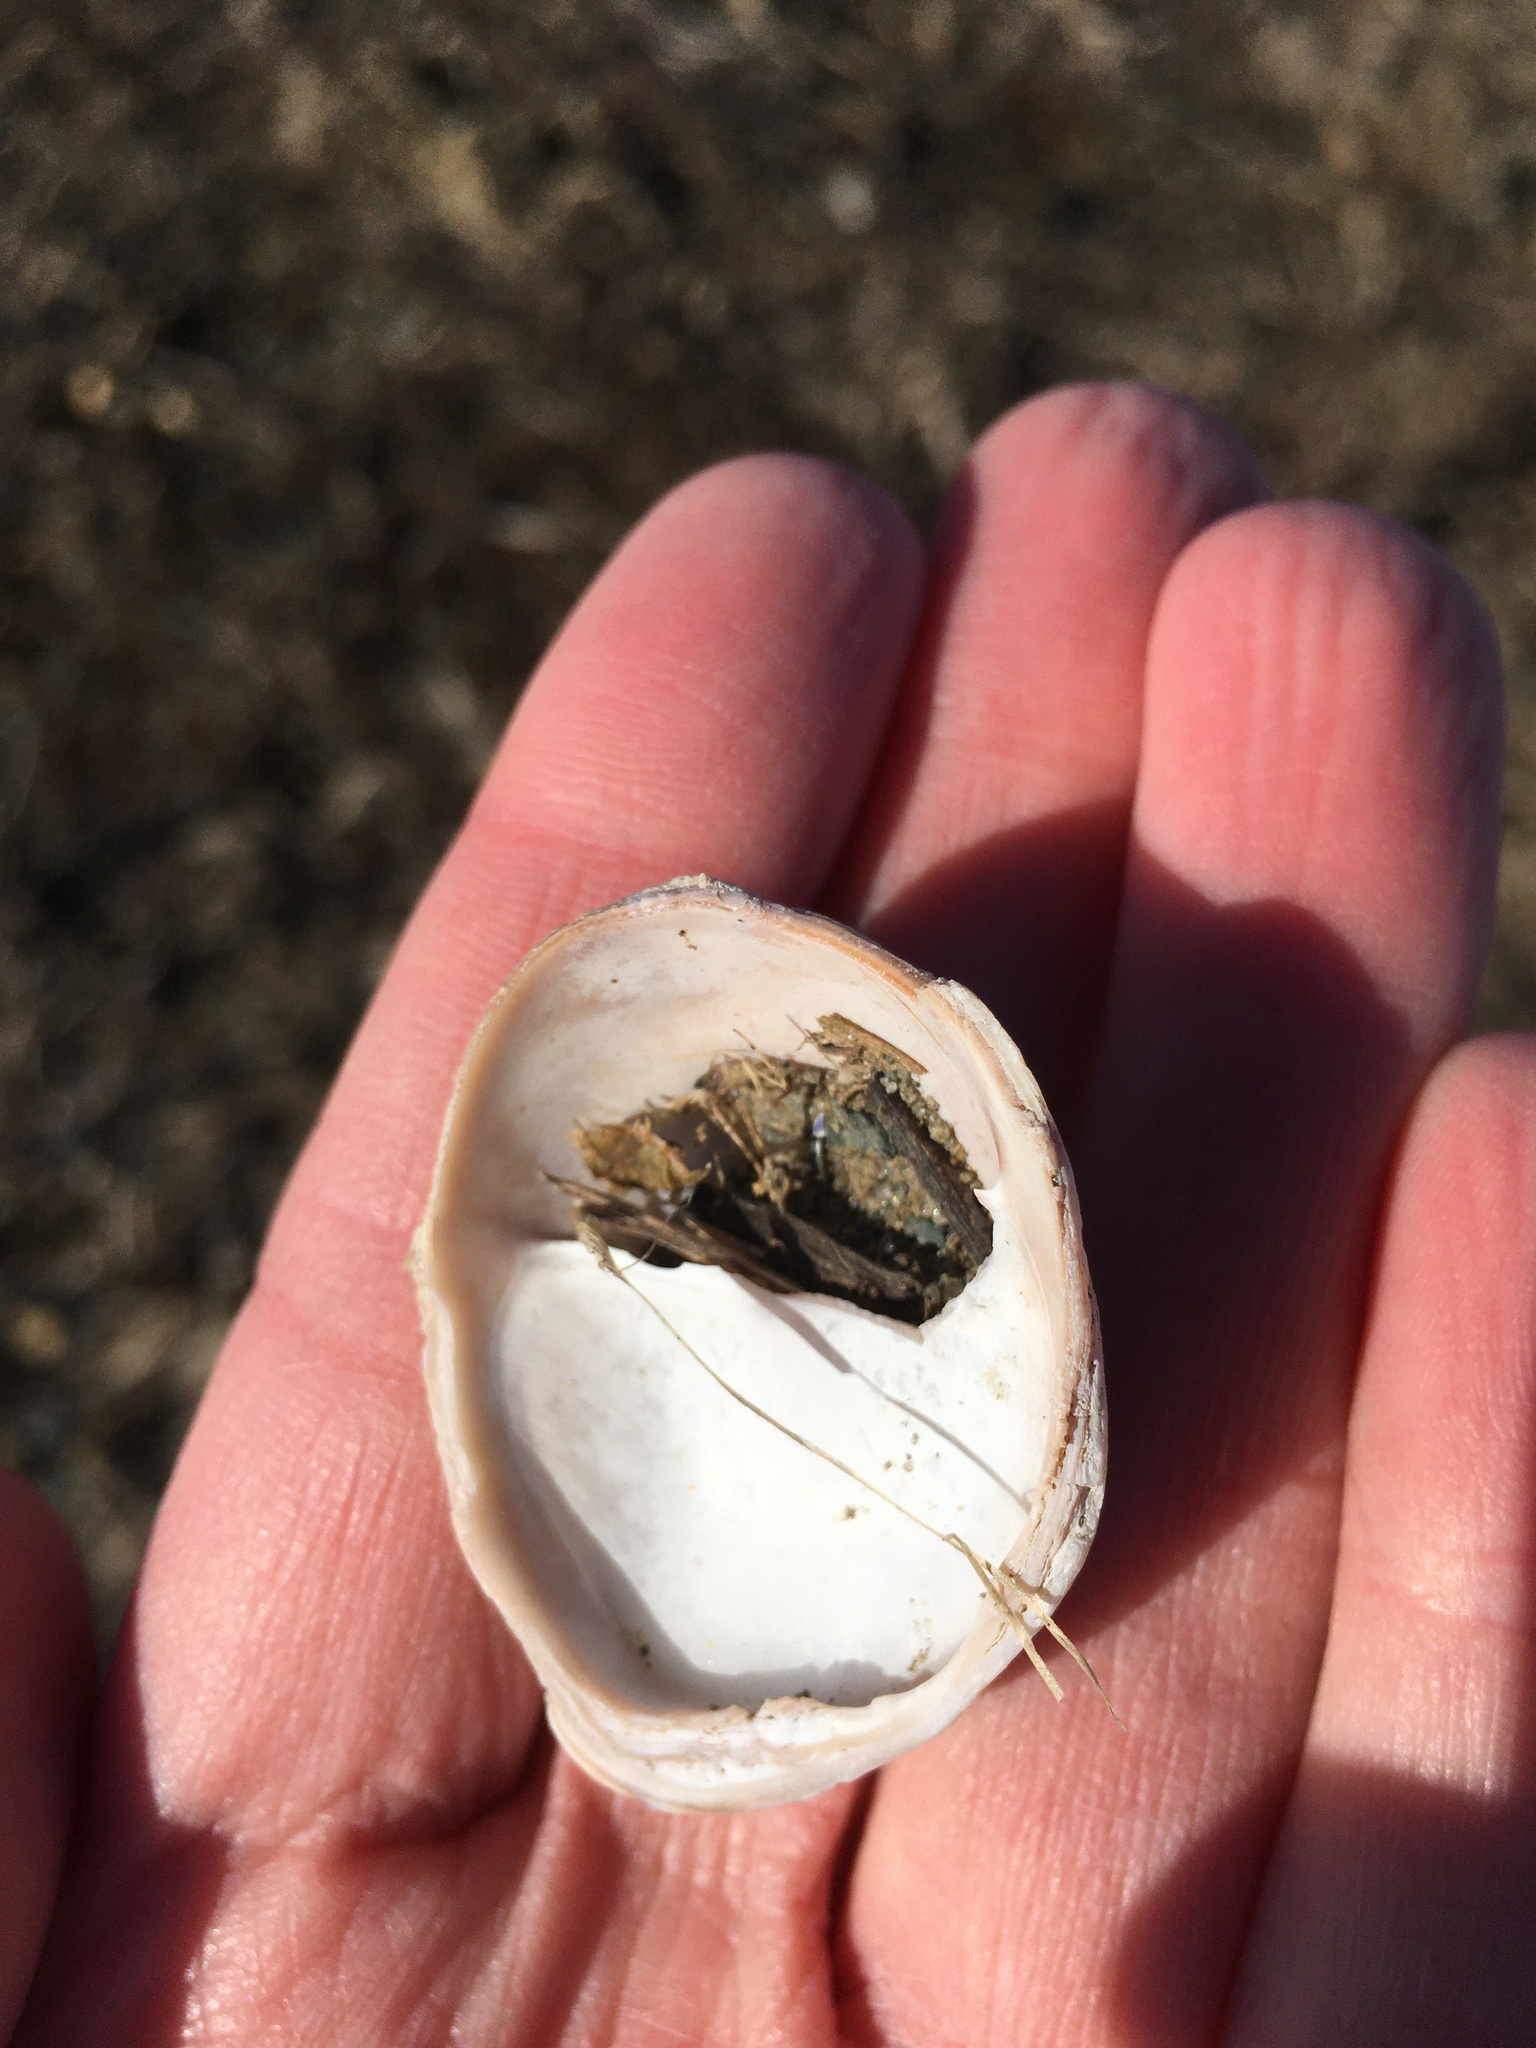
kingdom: Animalia
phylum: Mollusca
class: Gastropoda
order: Littorinimorpha
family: Calyptraeidae
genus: Crepidula
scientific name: Crepidula fornicata
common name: Slipper limpet
